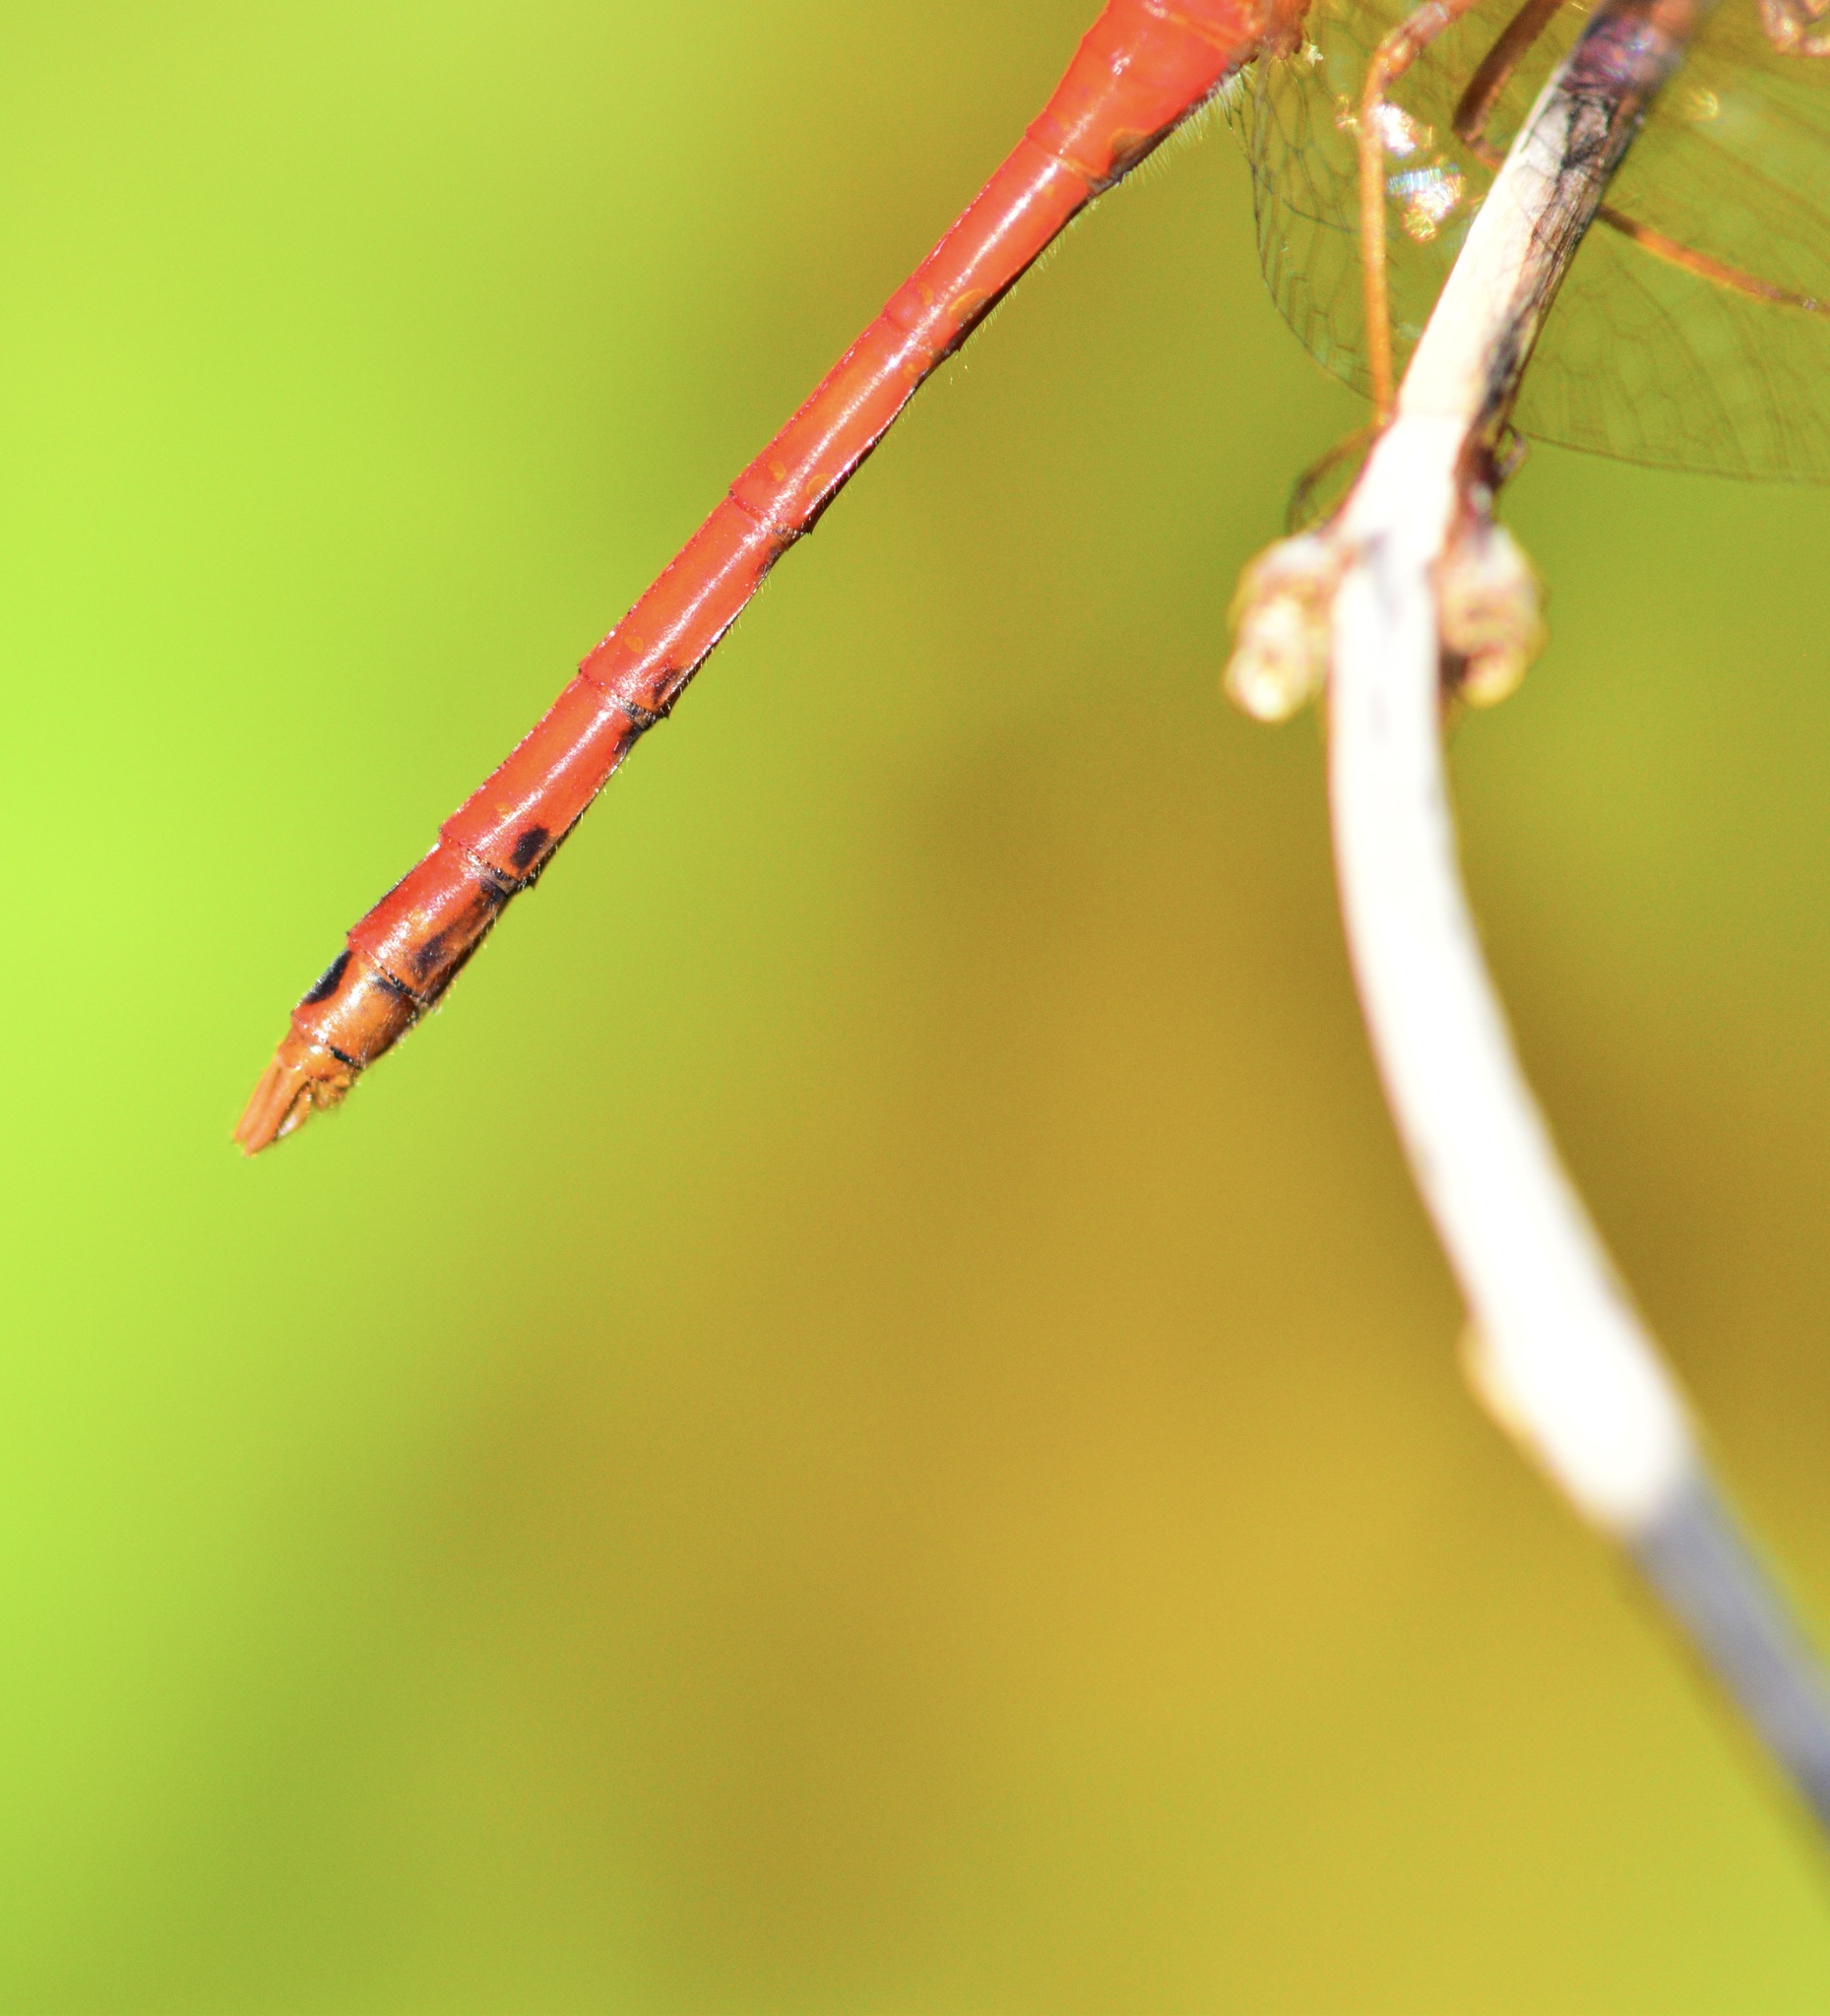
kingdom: Animalia
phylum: Arthropoda
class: Insecta
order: Odonata
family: Libellulidae
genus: Sympetrum
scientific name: Sympetrum vicinum
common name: Autumn meadowhawk
